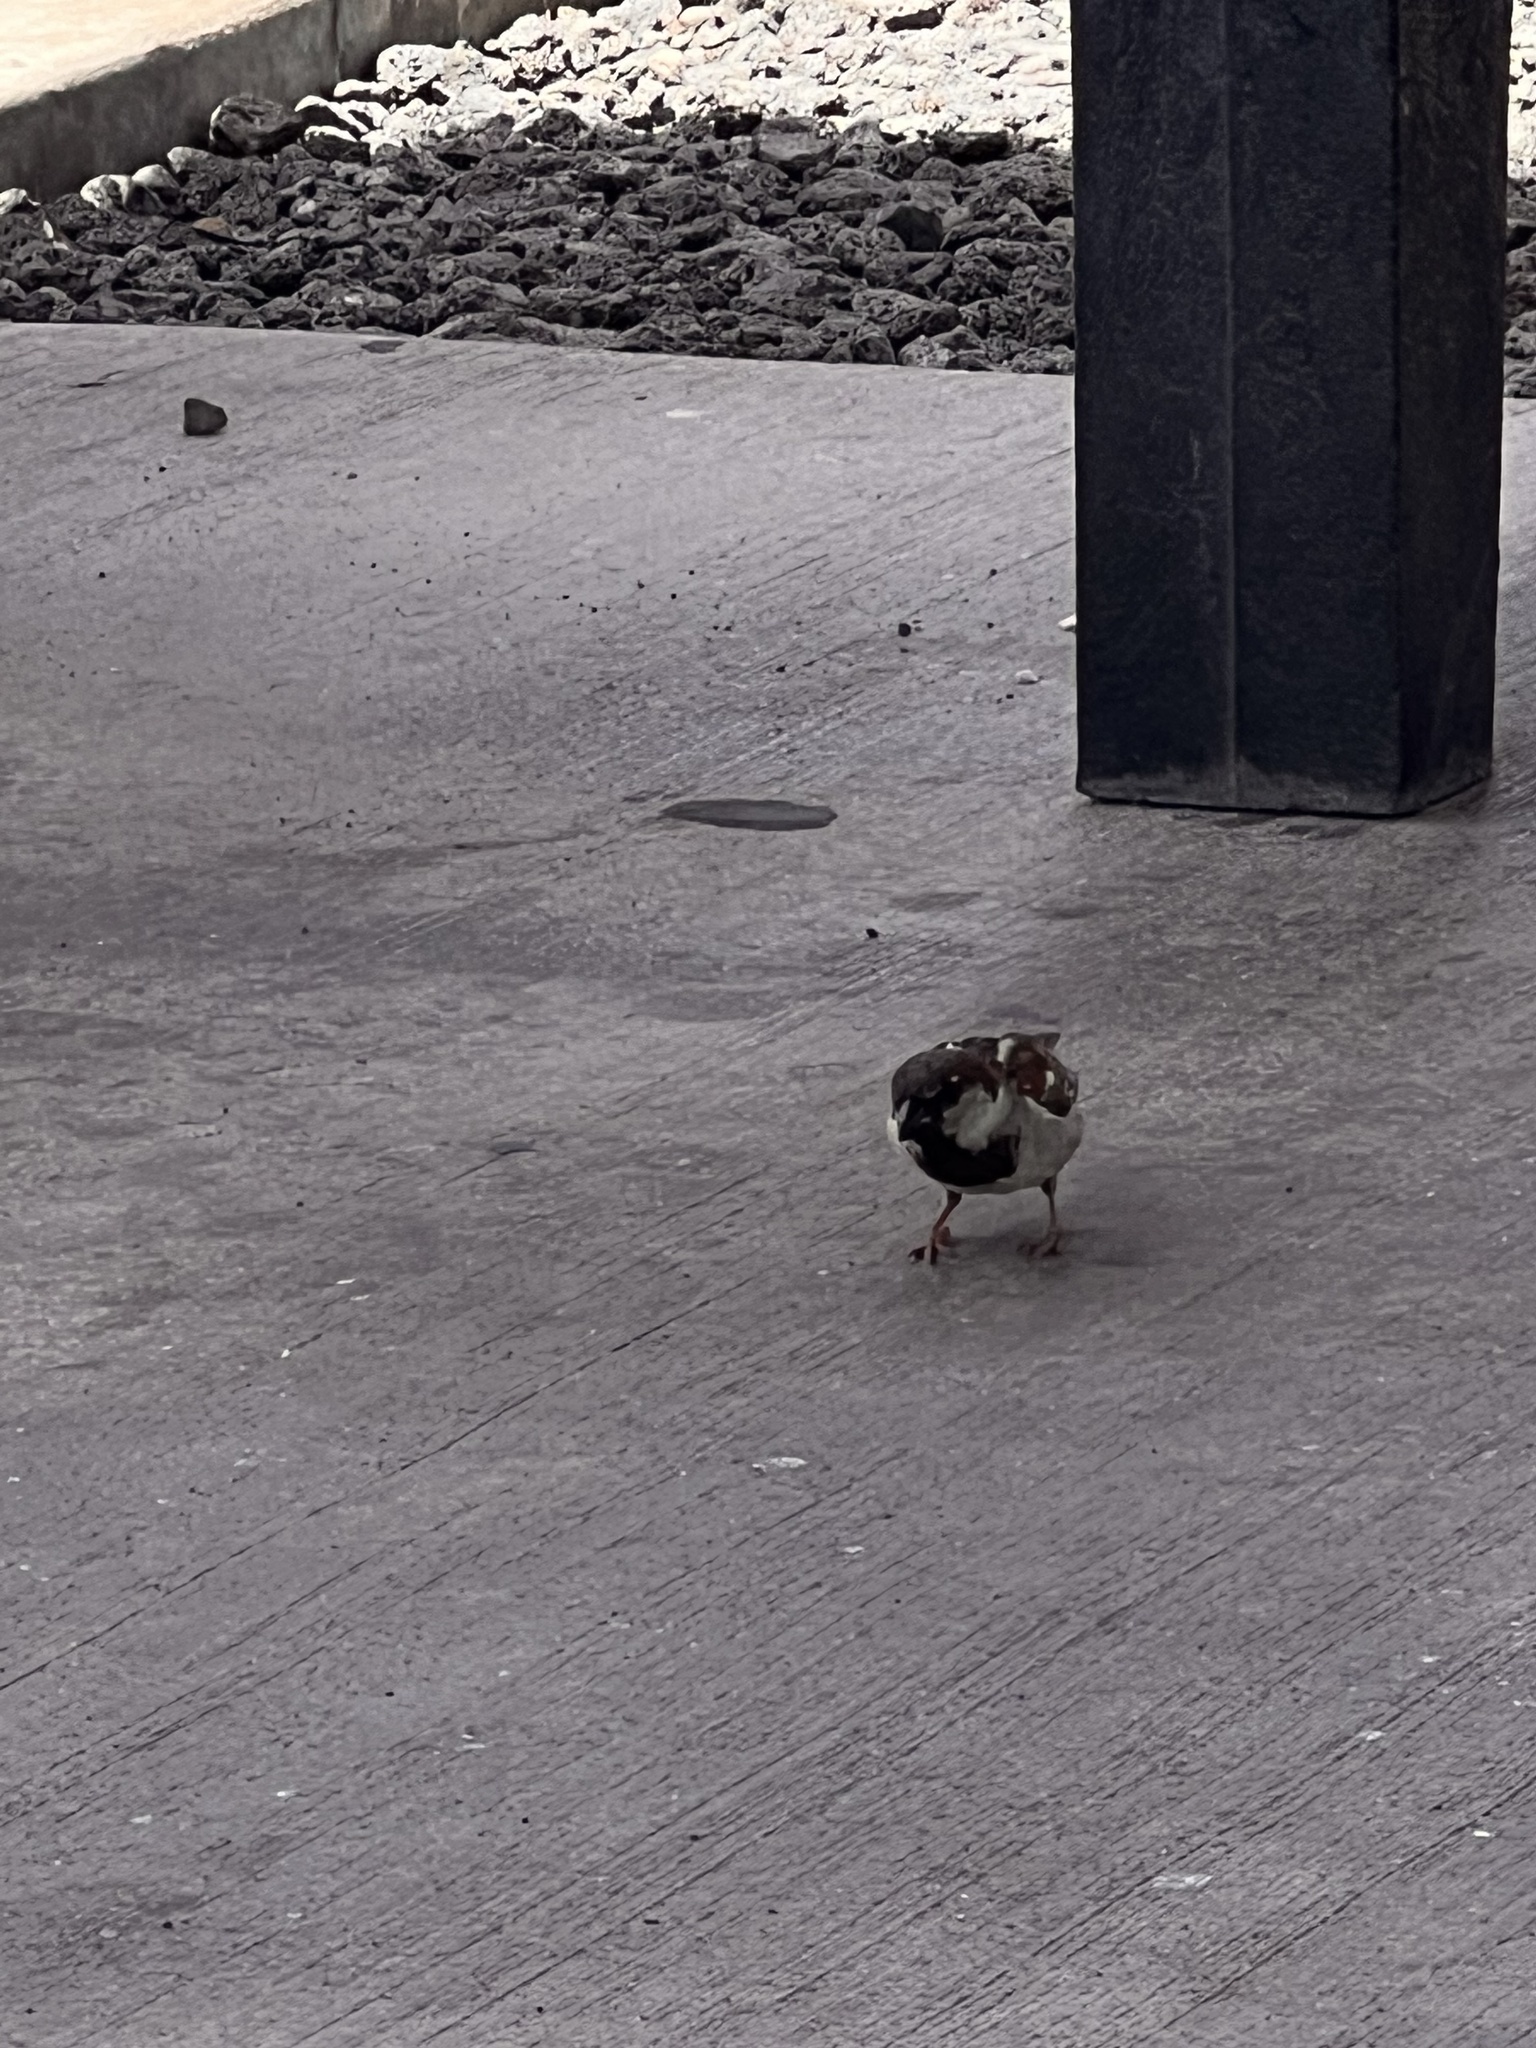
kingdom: Animalia
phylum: Chordata
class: Aves
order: Passeriformes
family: Passeridae
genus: Passer
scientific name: Passer domesticus
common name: House sparrow
